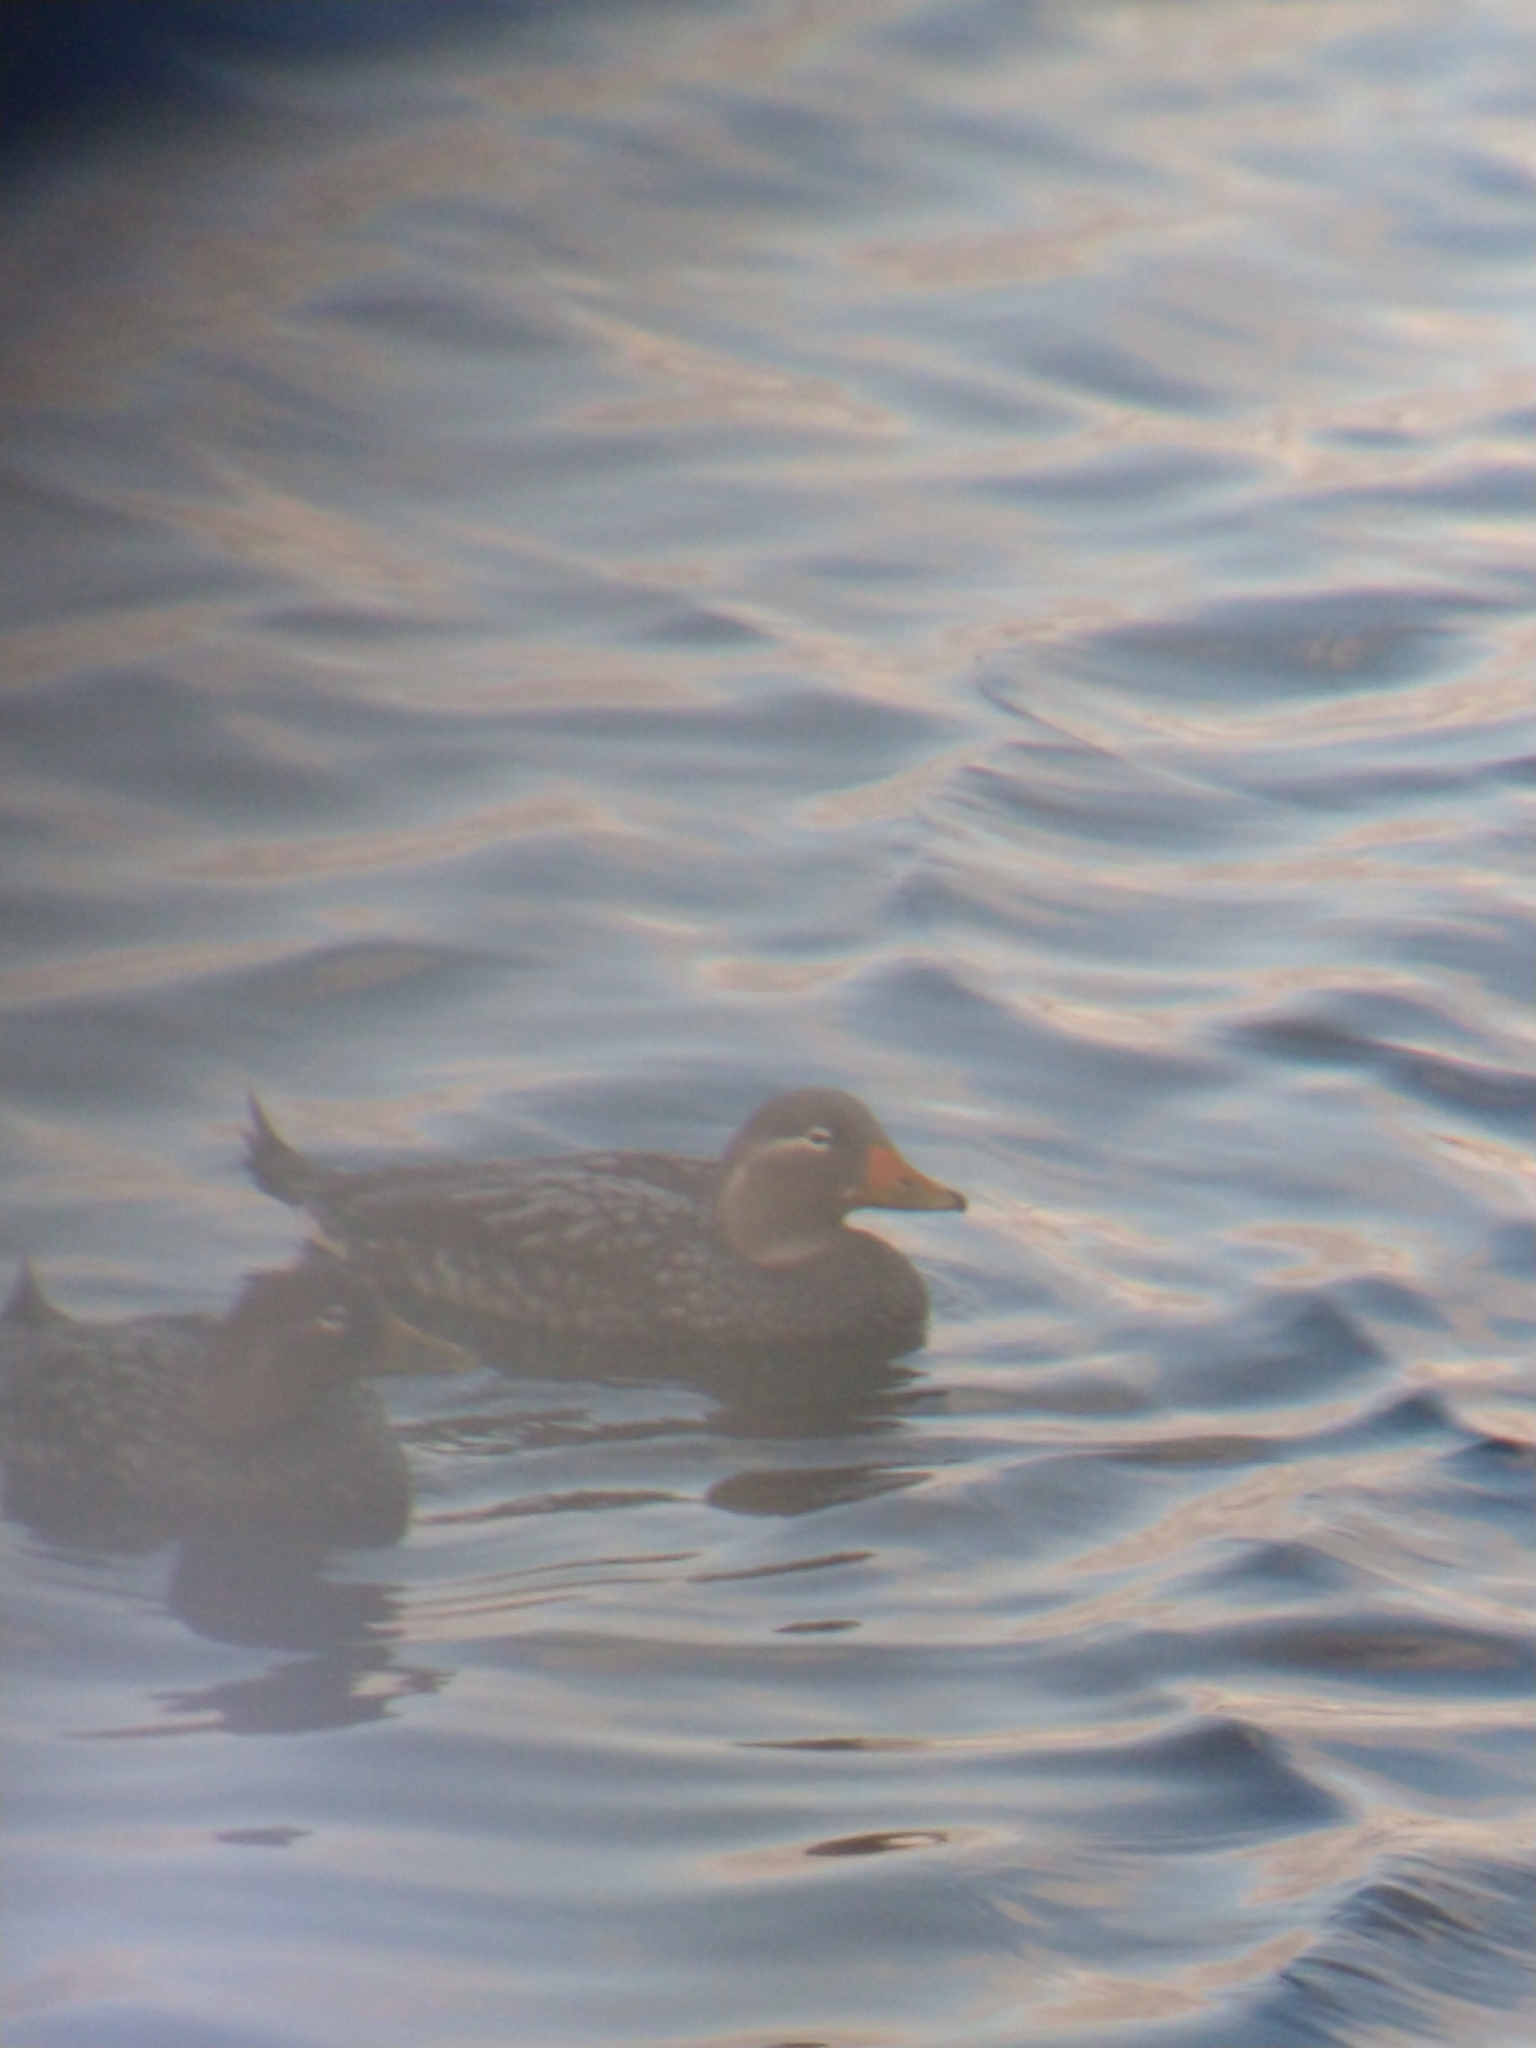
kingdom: Animalia
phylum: Chordata
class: Aves
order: Anseriformes
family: Anatidae
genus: Tachyeres
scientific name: Tachyeres patachonicus
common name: Flying steamer duck
